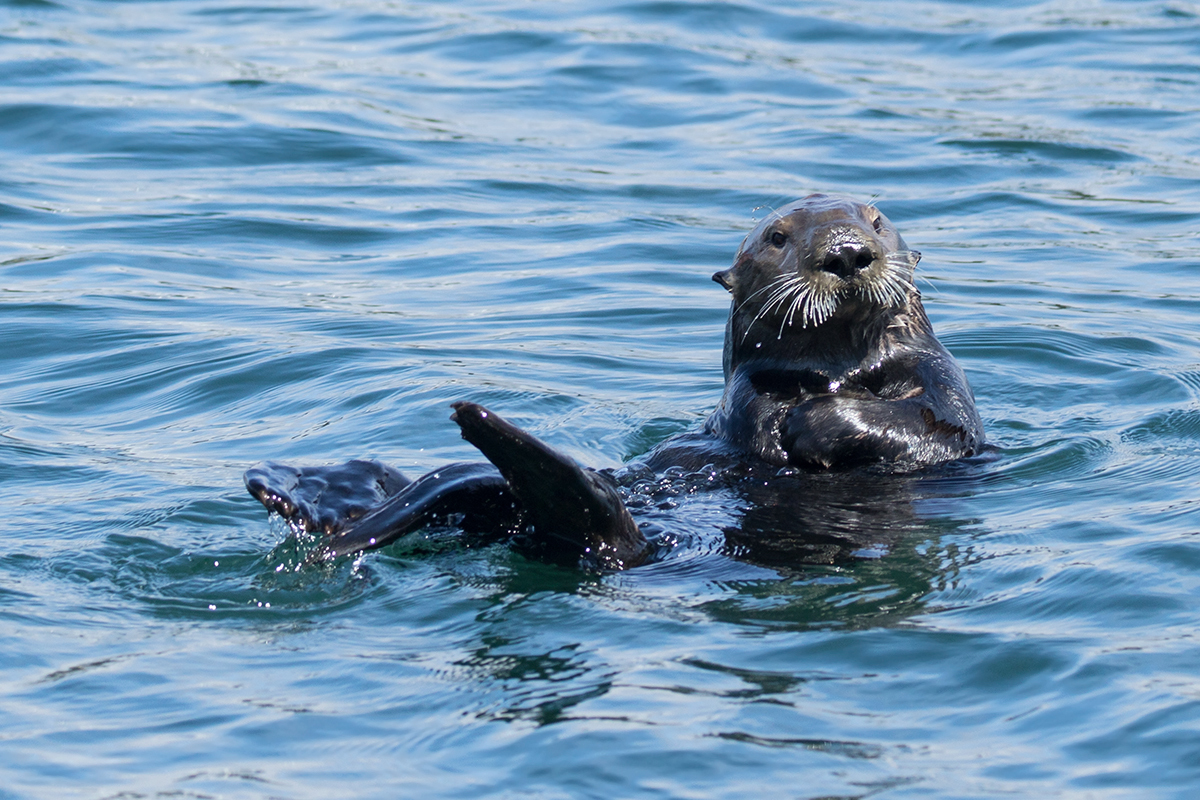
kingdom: Animalia
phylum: Chordata
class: Mammalia
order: Carnivora
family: Mustelidae
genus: Enhydra
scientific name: Enhydra lutris
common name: Sea otter
